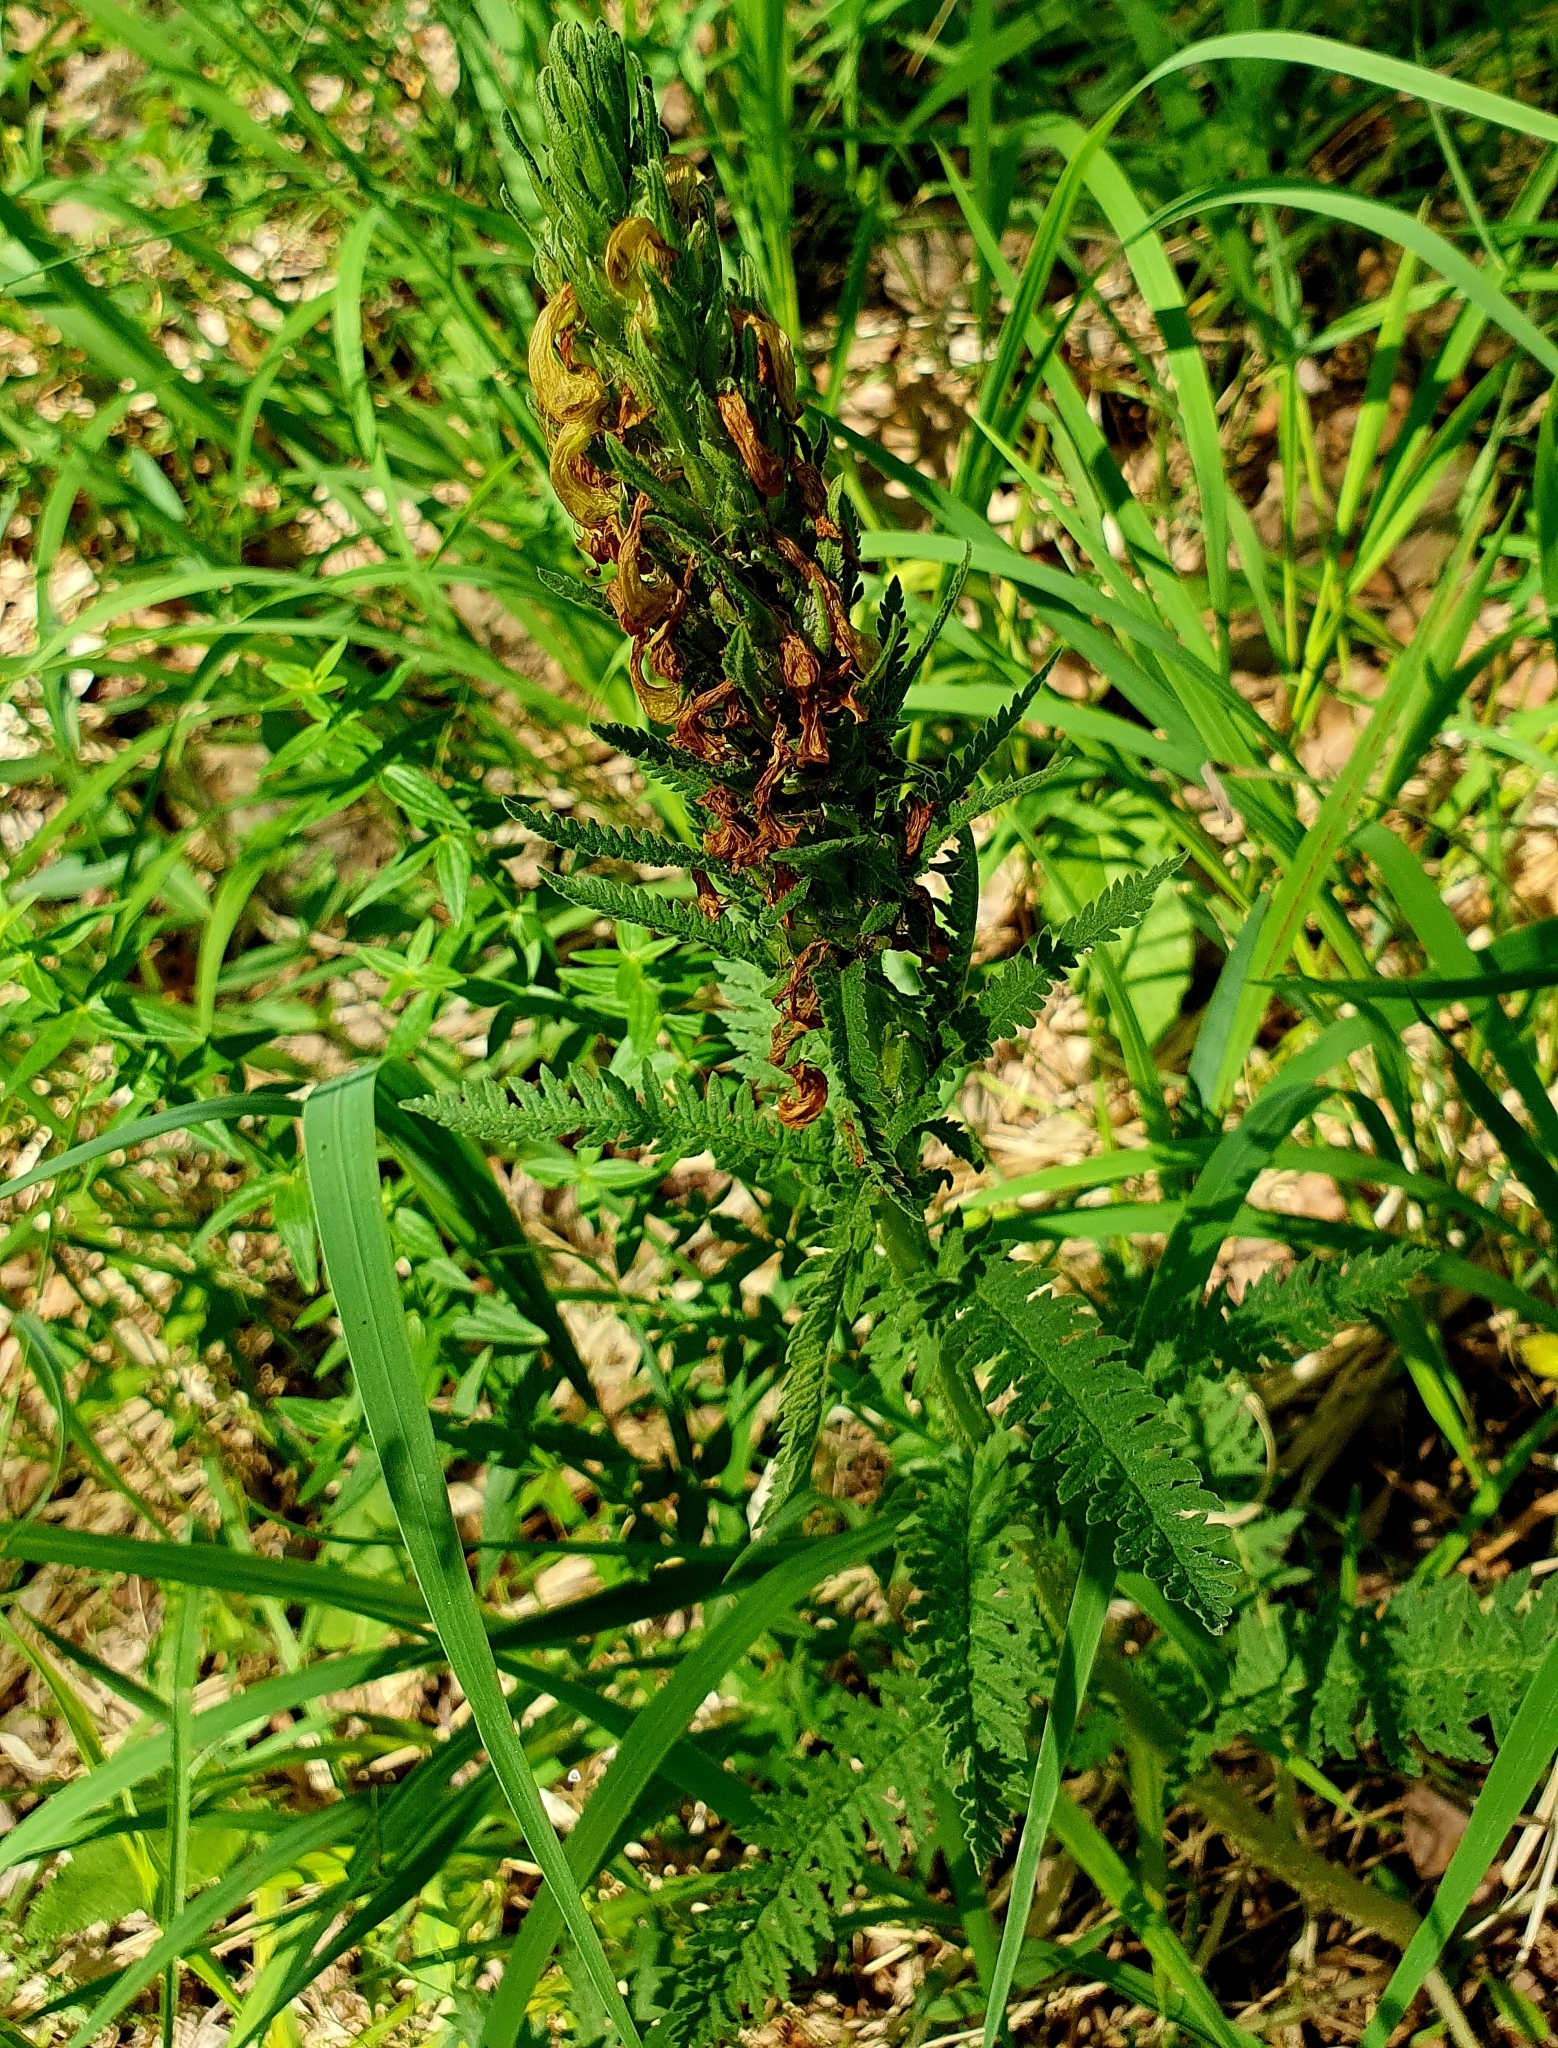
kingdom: Plantae
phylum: Tracheophyta
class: Magnoliopsida
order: Lamiales
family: Orobanchaceae
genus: Pedicularis
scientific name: Pedicularis kaufmannii
